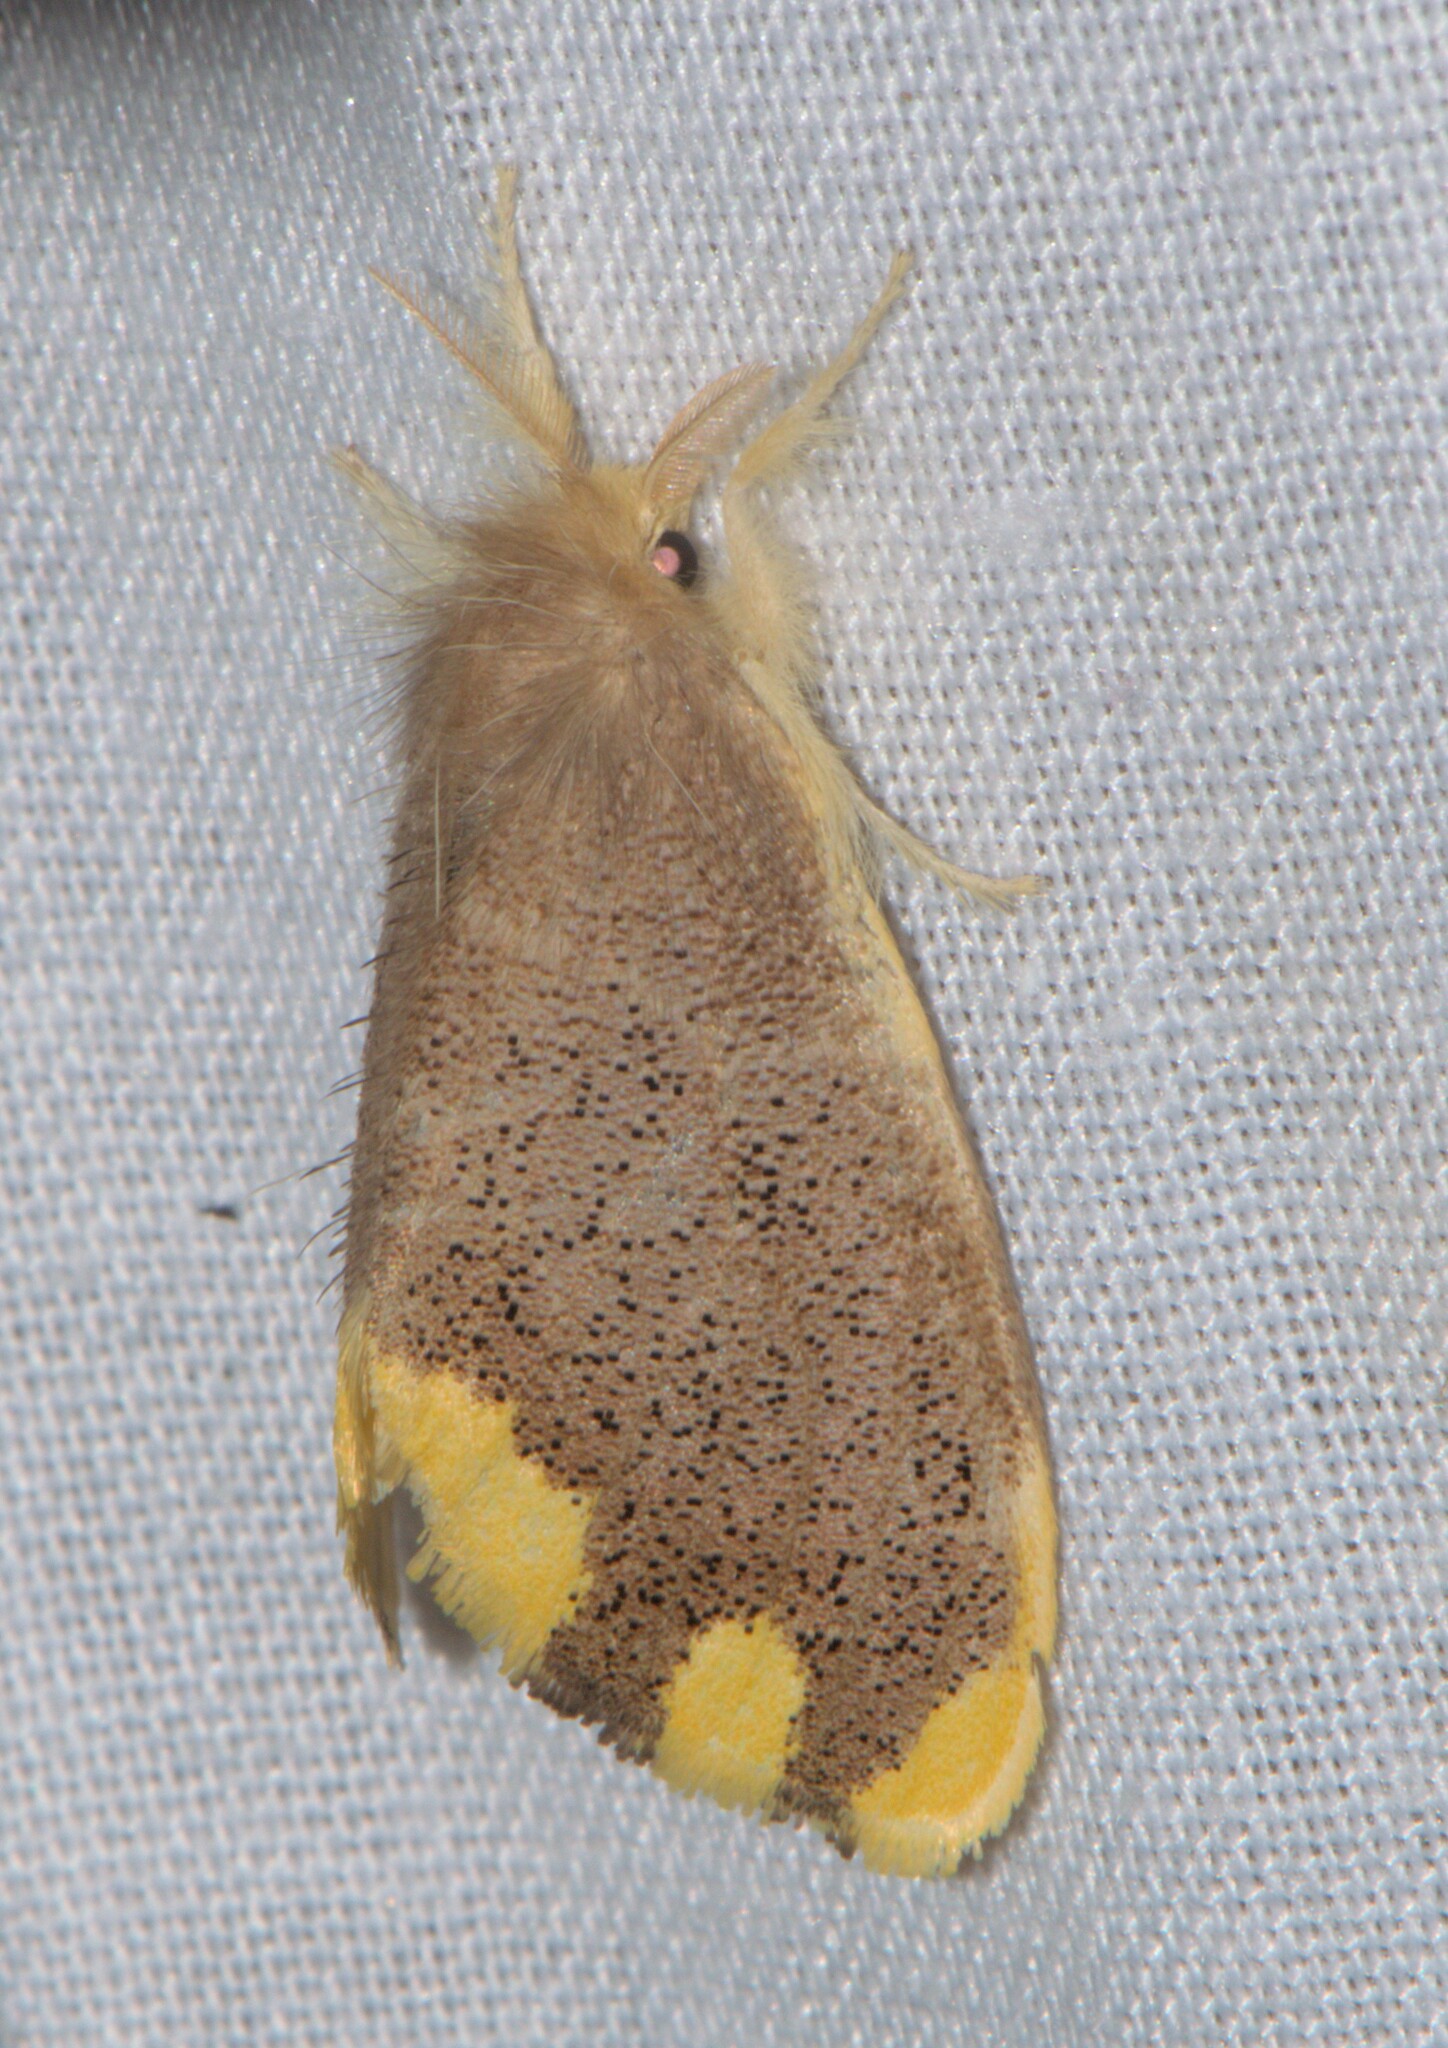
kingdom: Animalia
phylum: Arthropoda
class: Insecta
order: Lepidoptera
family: Erebidae
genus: Orvasca
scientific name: Orvasca subnotata
